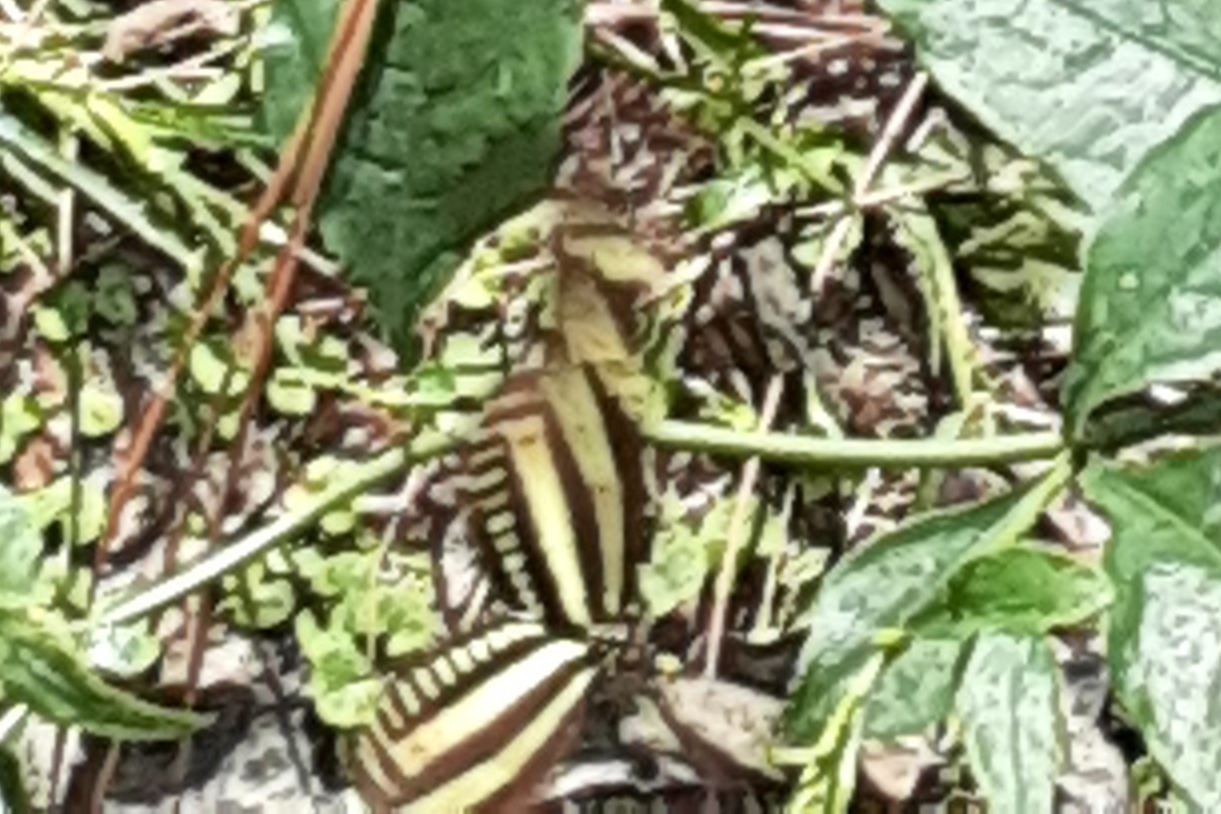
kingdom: Animalia
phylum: Arthropoda
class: Insecta
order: Lepidoptera
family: Nymphalidae
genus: Heliconius
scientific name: Heliconius charithonia
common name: Zebra long wing
